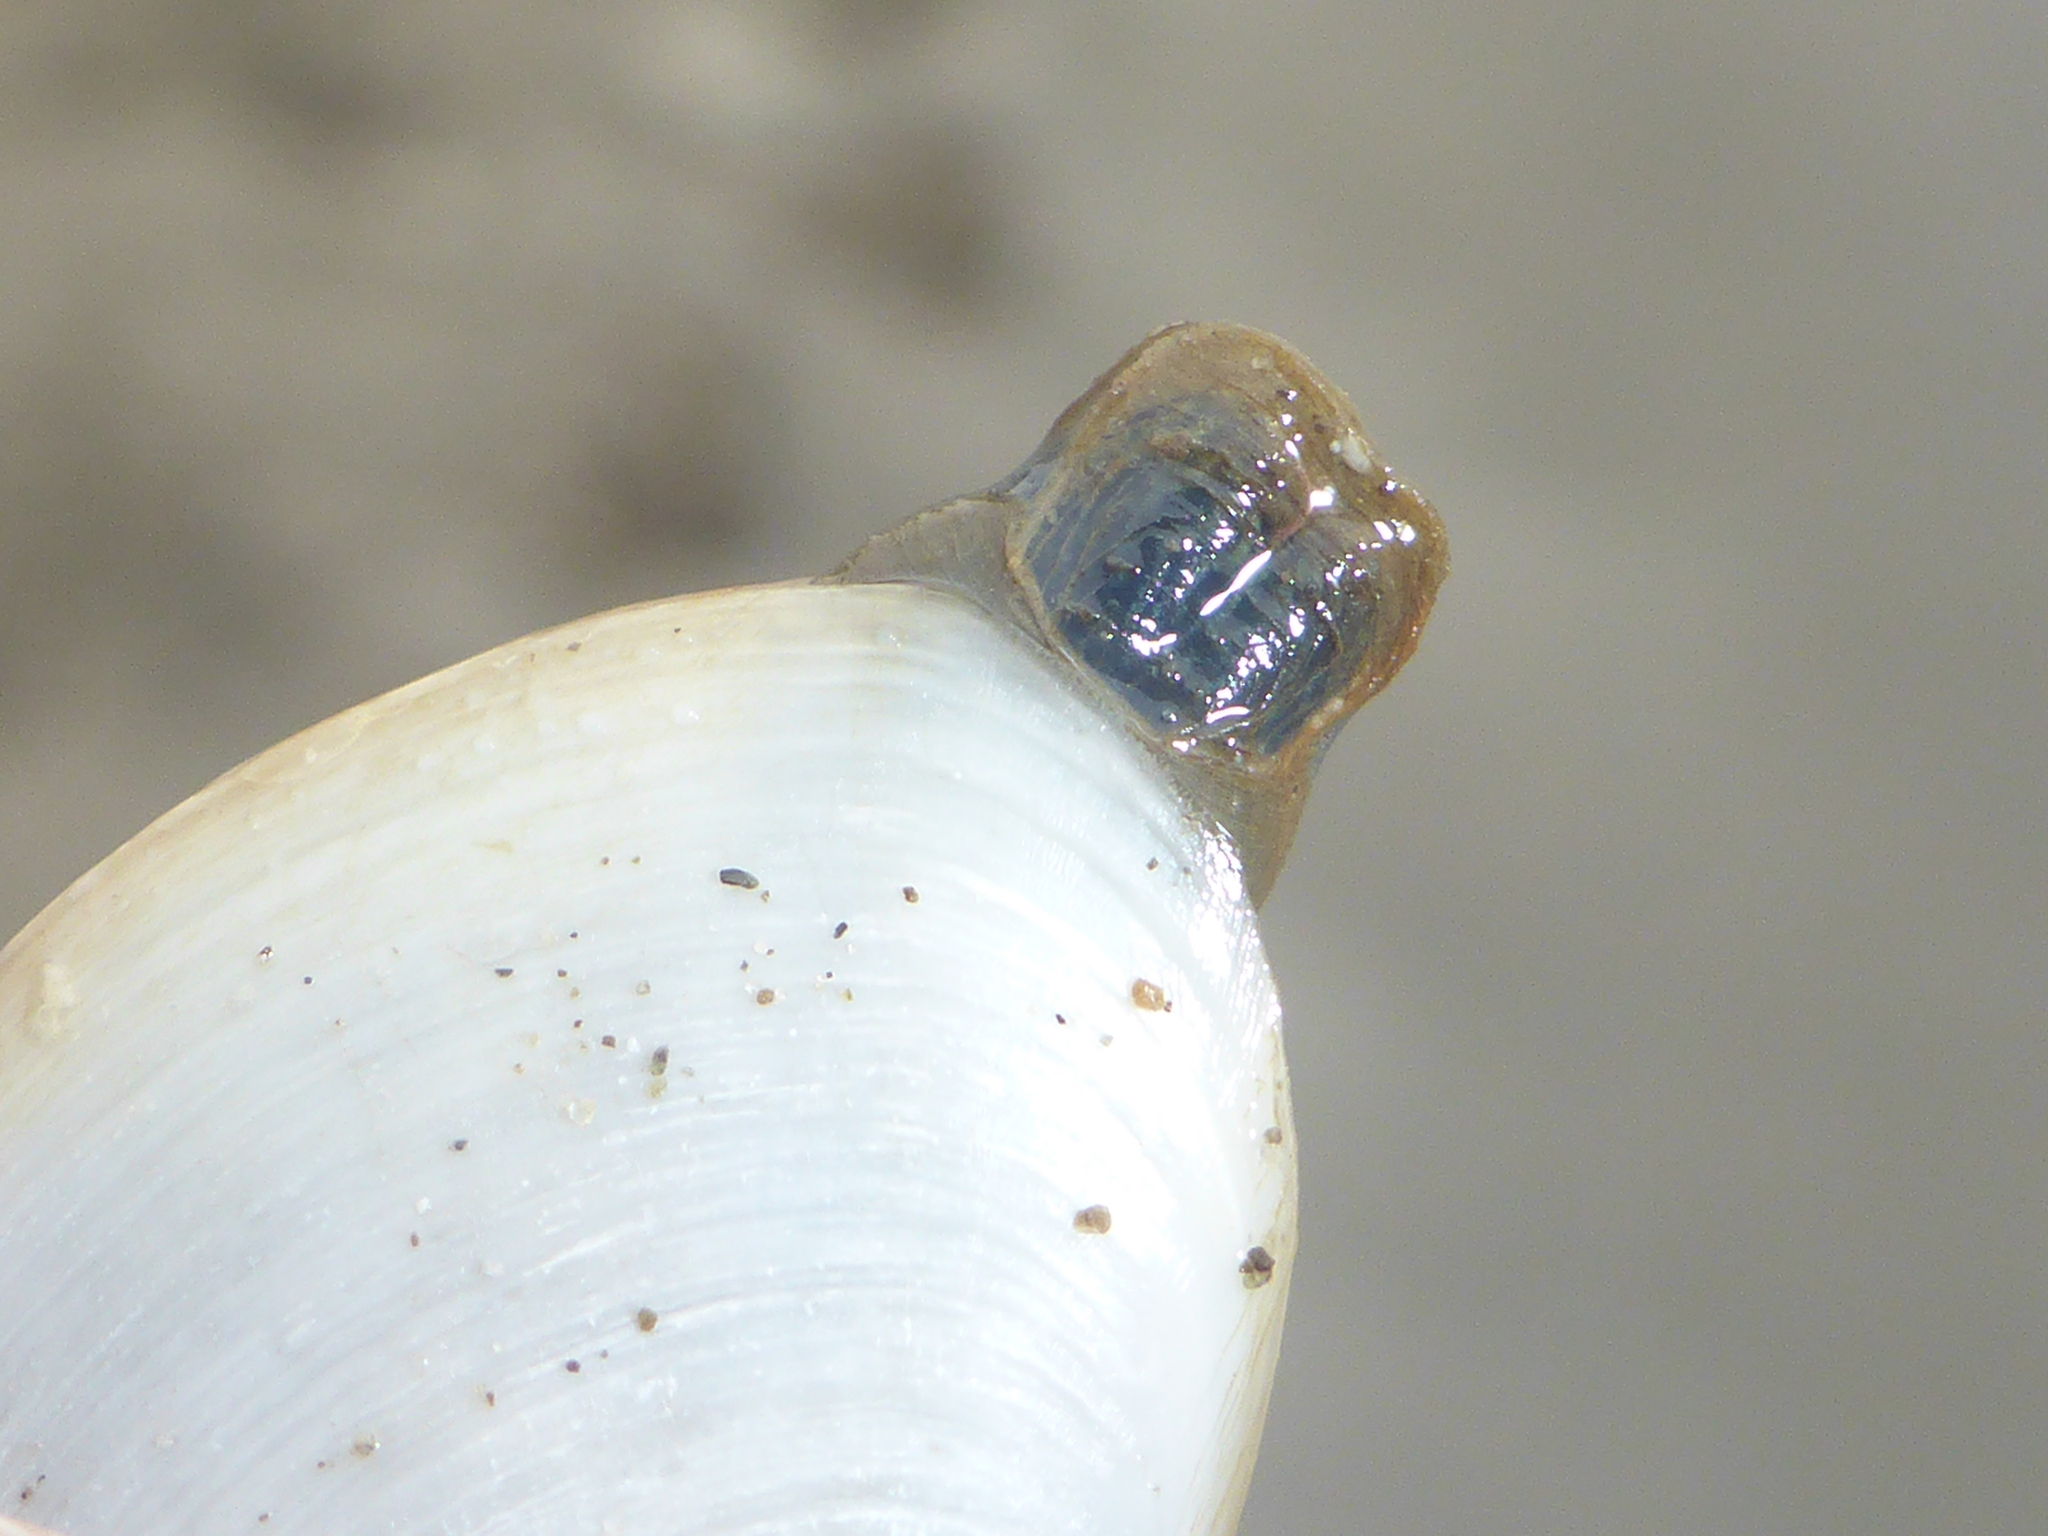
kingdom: Animalia
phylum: Mollusca
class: Bivalvia
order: Venerida
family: Mactridae
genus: Tresus
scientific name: Tresus nuttallii
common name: Pacific gaper clam
